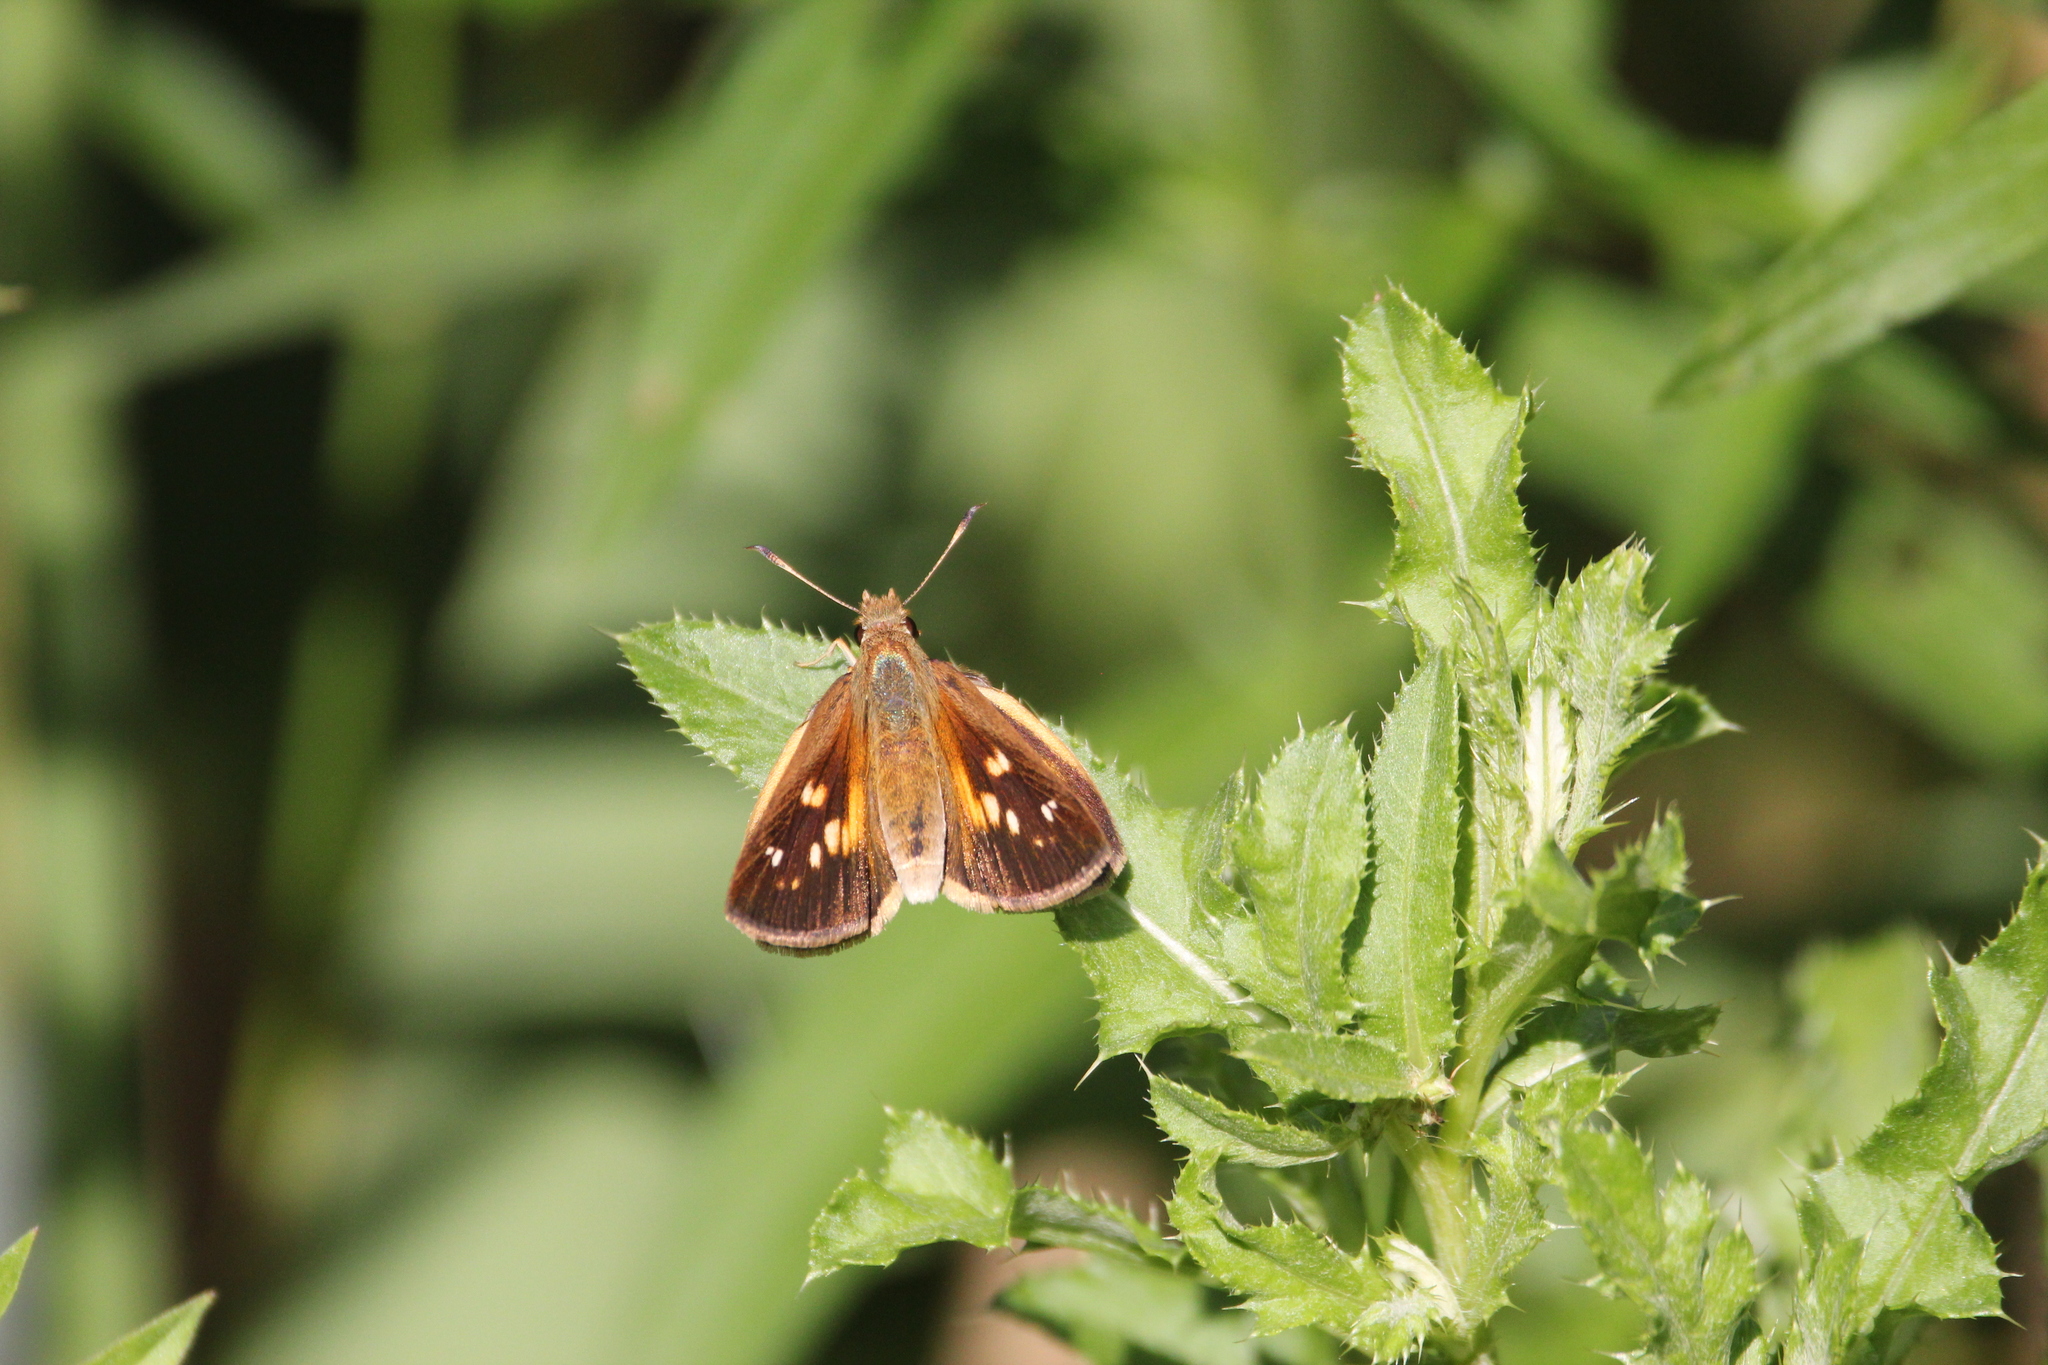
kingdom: Animalia
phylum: Arthropoda
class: Insecta
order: Lepidoptera
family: Hesperiidae
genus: Poanes
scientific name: Poanes viator
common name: Broad-winged skipper
